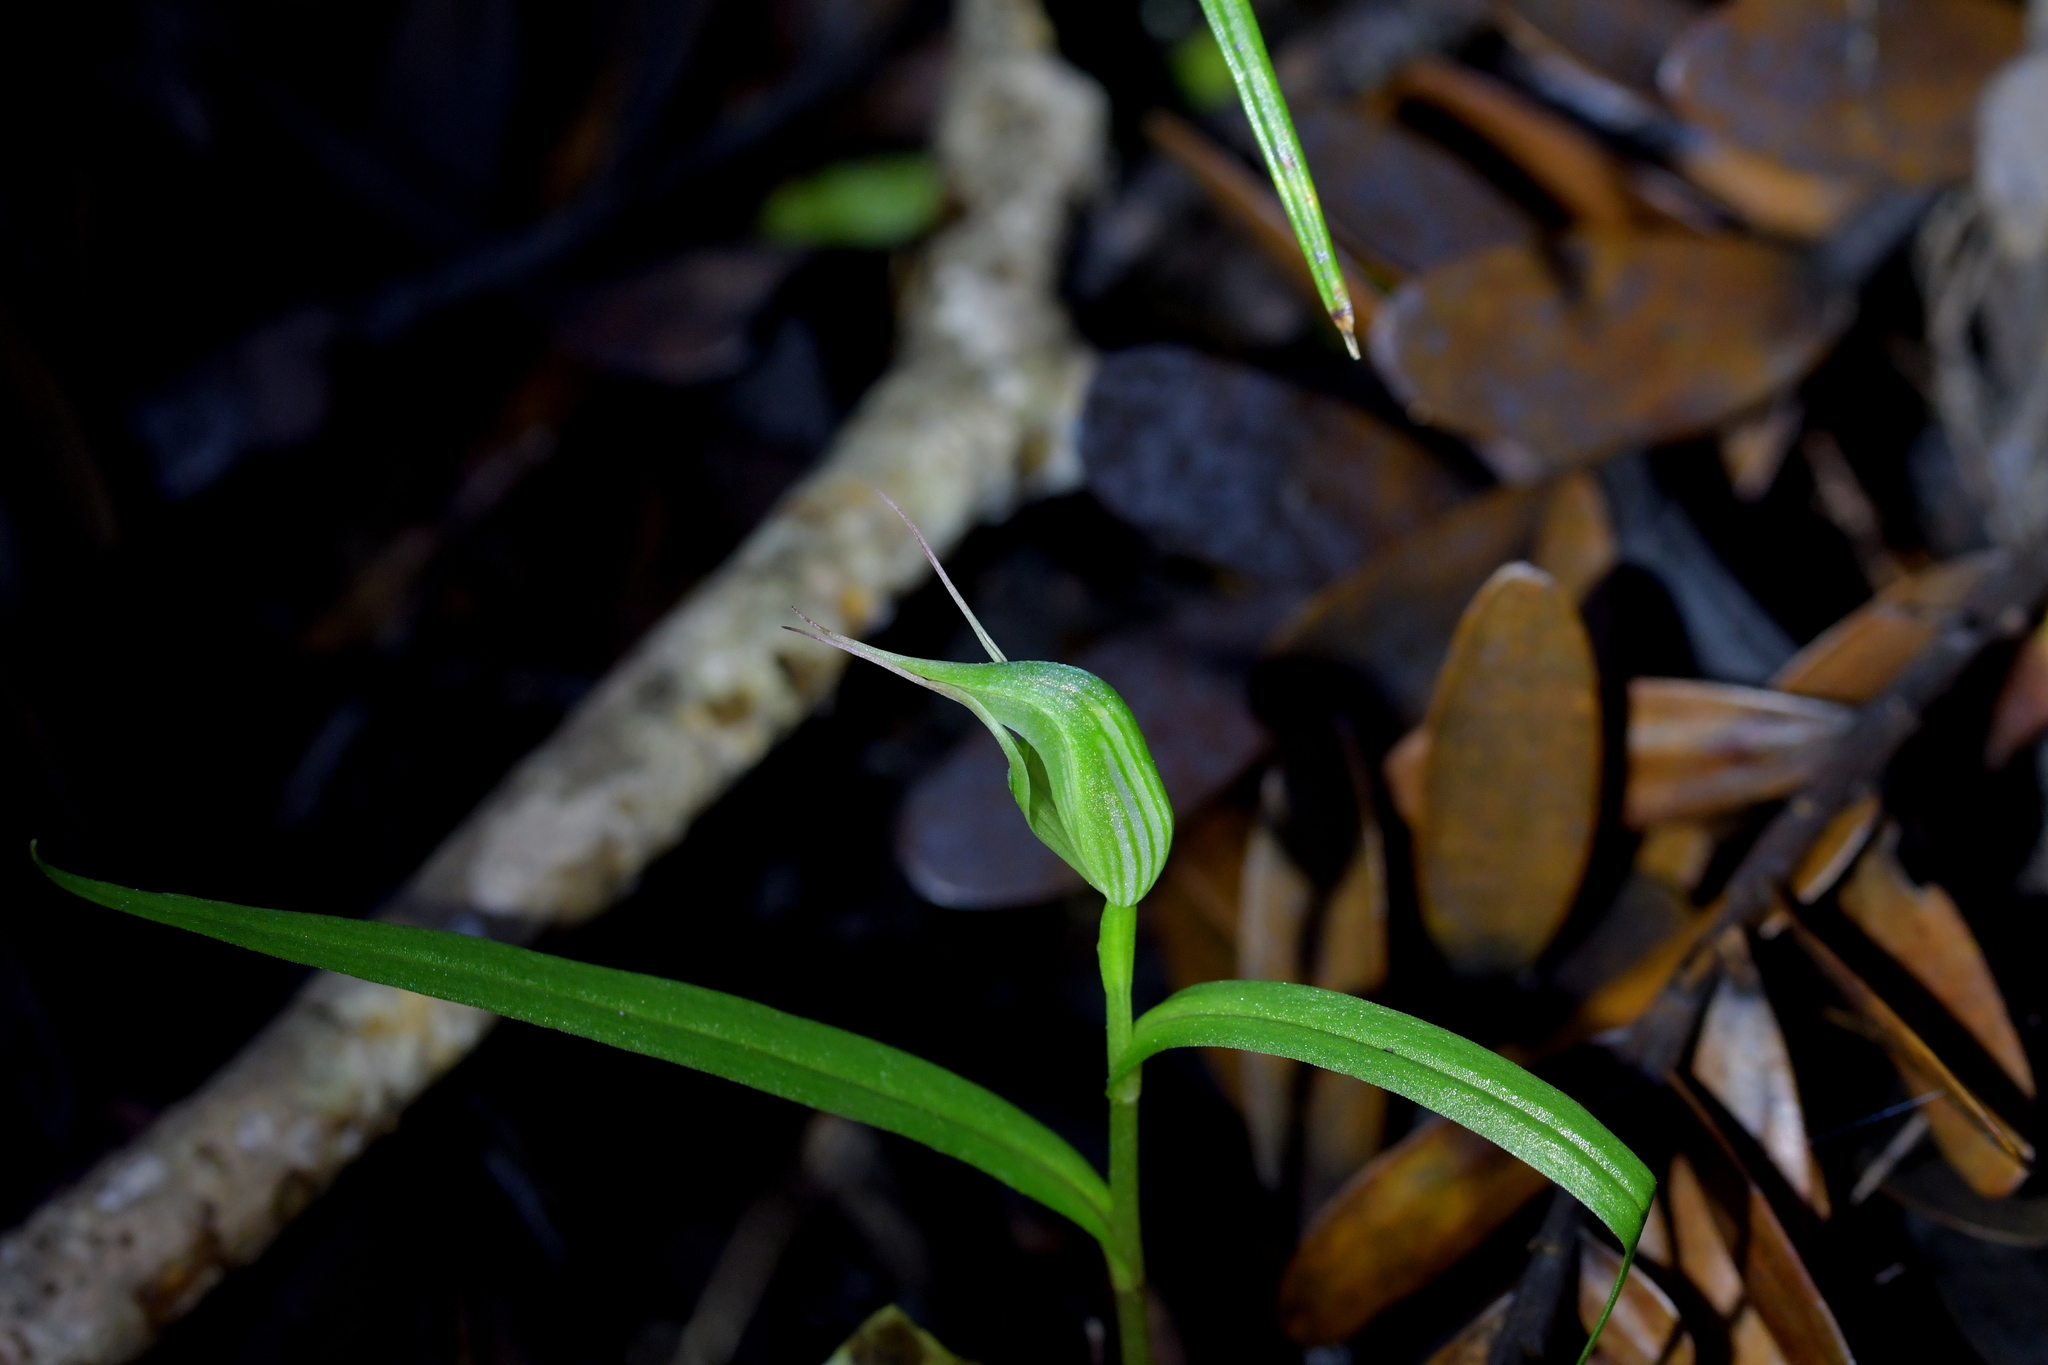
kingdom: Plantae
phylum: Tracheophyta
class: Liliopsida
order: Asparagales
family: Orchidaceae
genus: Pterostylis
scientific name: Pterostylis agathicola
